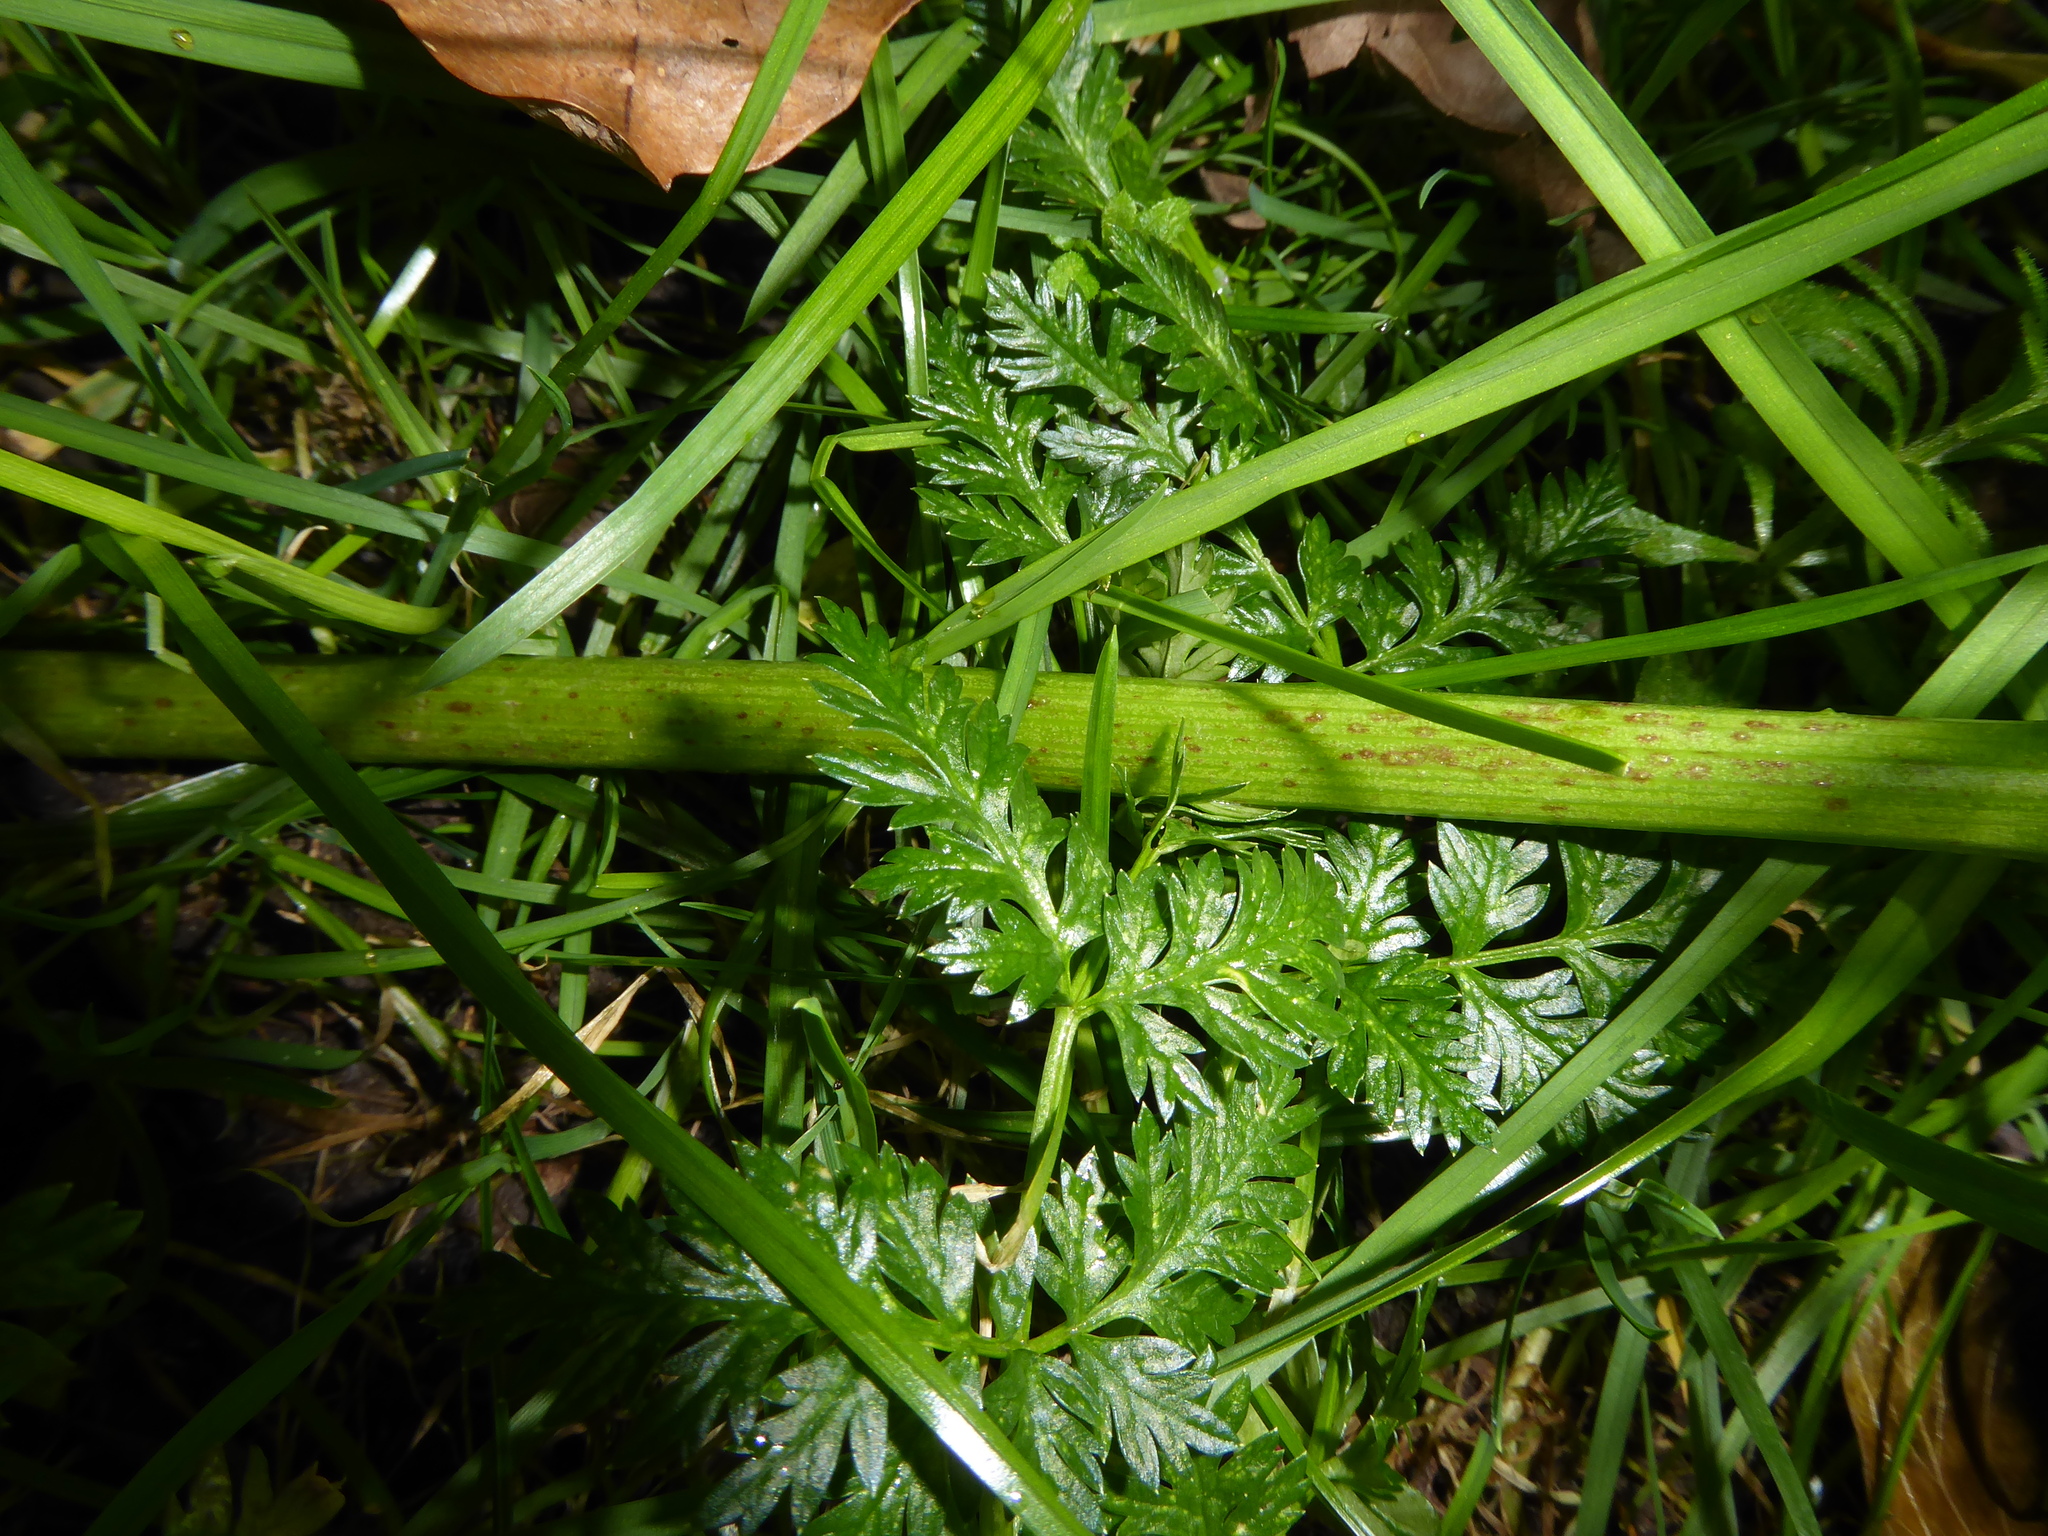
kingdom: Plantae
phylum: Tracheophyta
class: Magnoliopsida
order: Apiales
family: Apiaceae
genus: Conium
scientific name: Conium maculatum
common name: Hemlock
